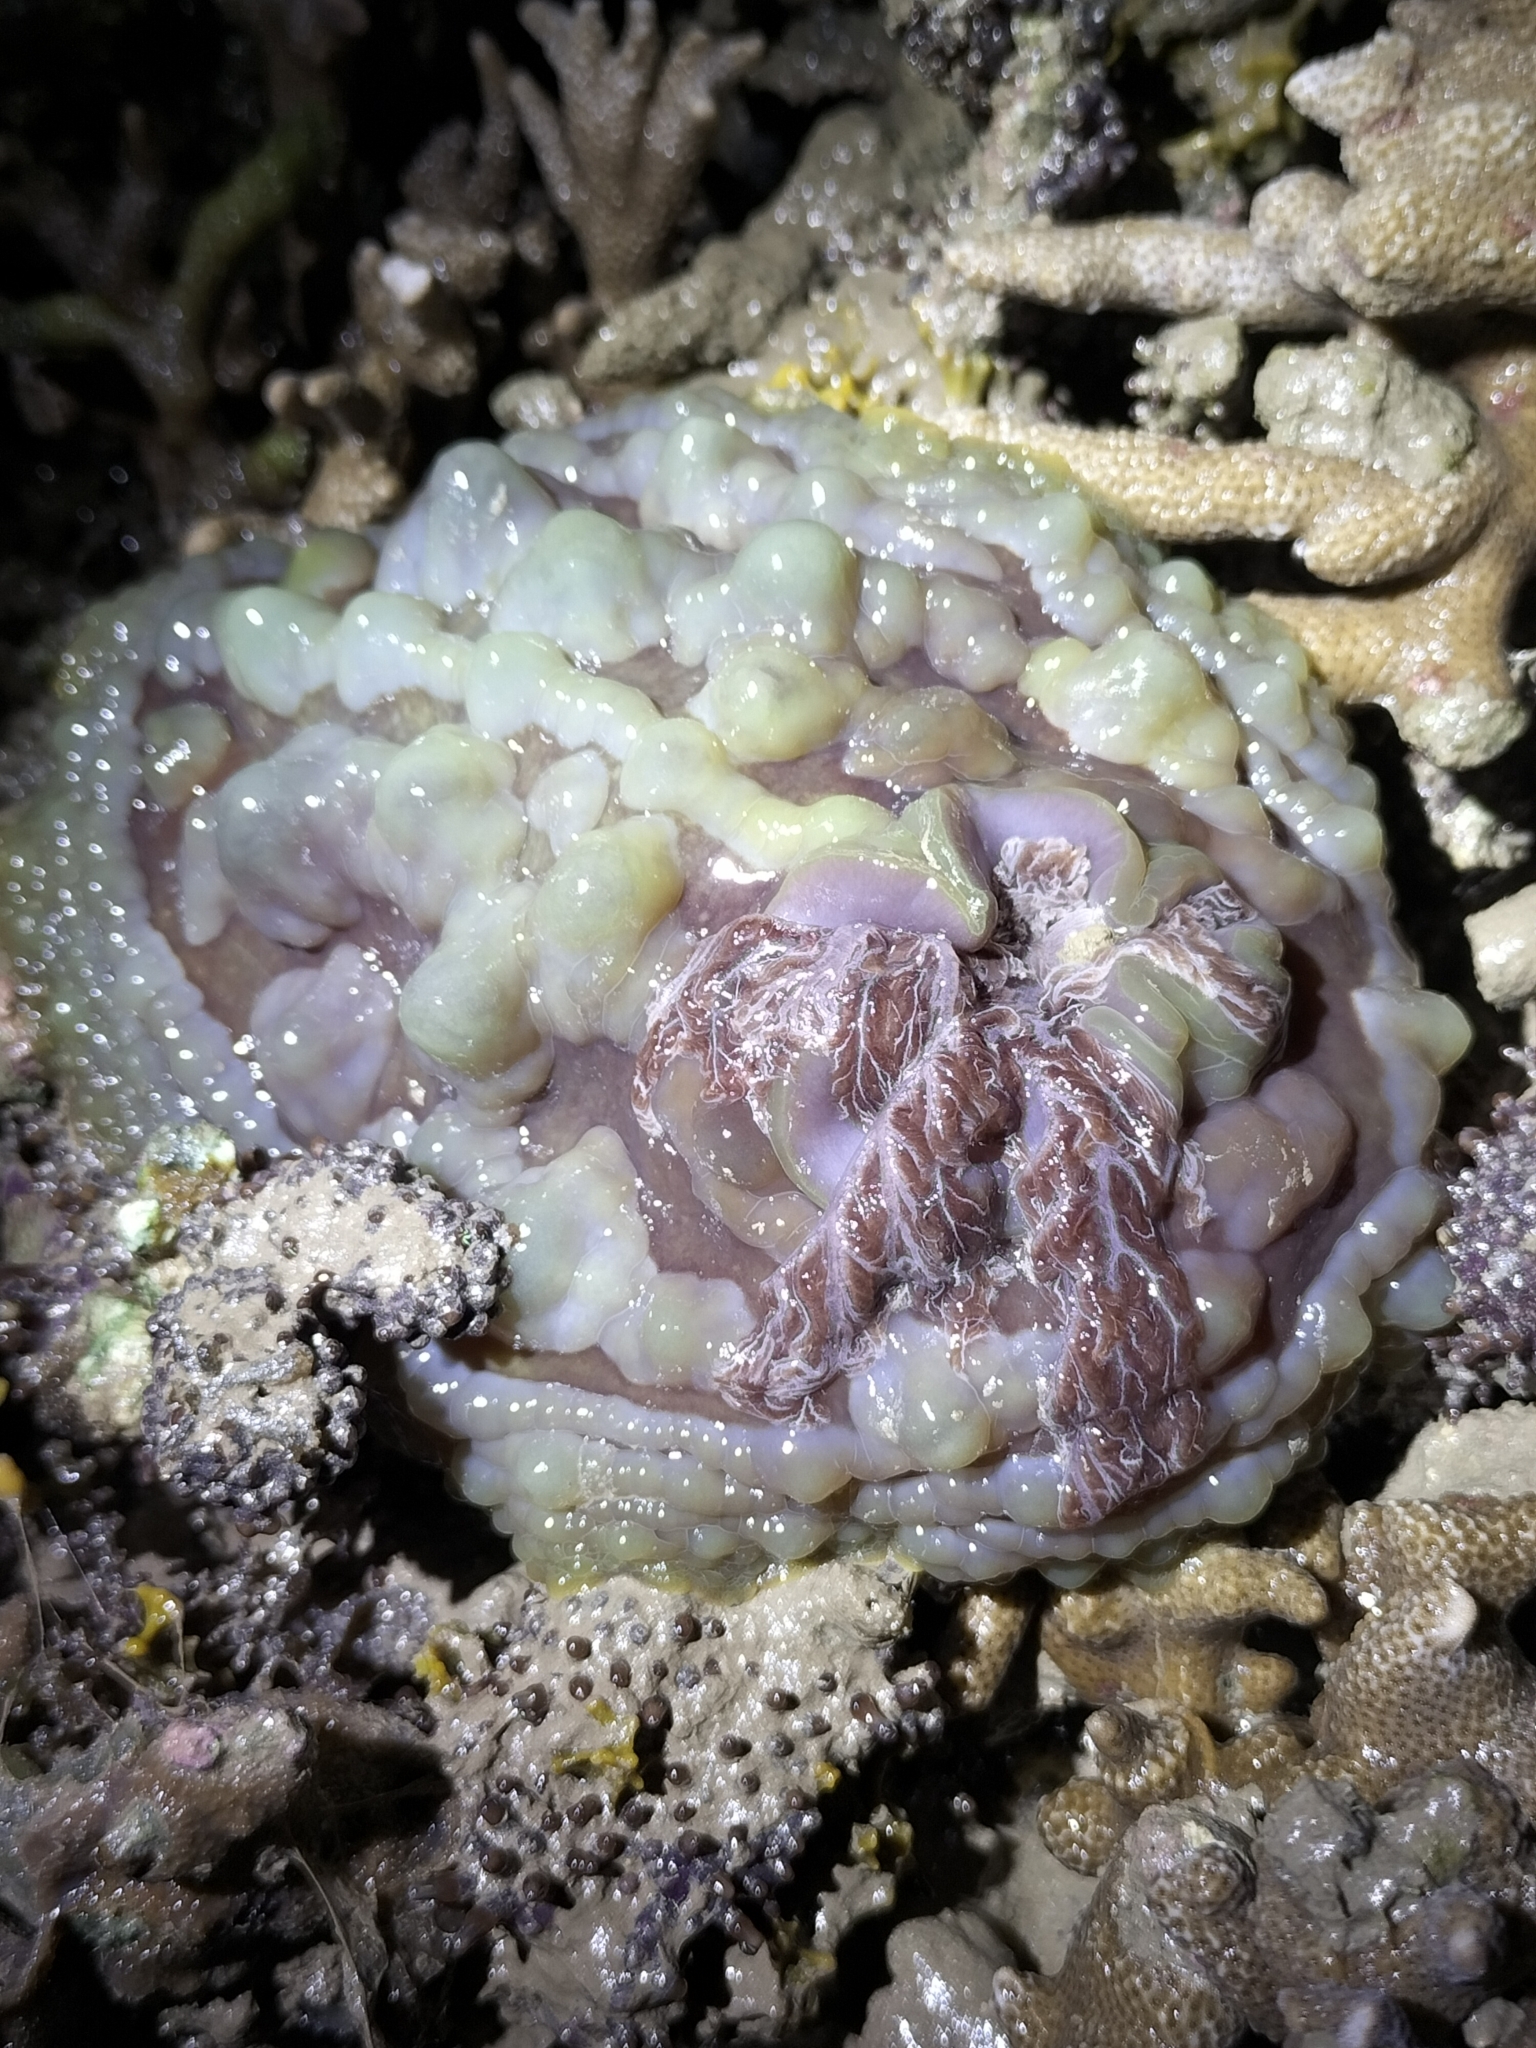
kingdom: Animalia
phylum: Mollusca
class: Gastropoda
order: Nudibranchia
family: Discodorididae
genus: Asteronotus
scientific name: Asteronotus cespitosus
